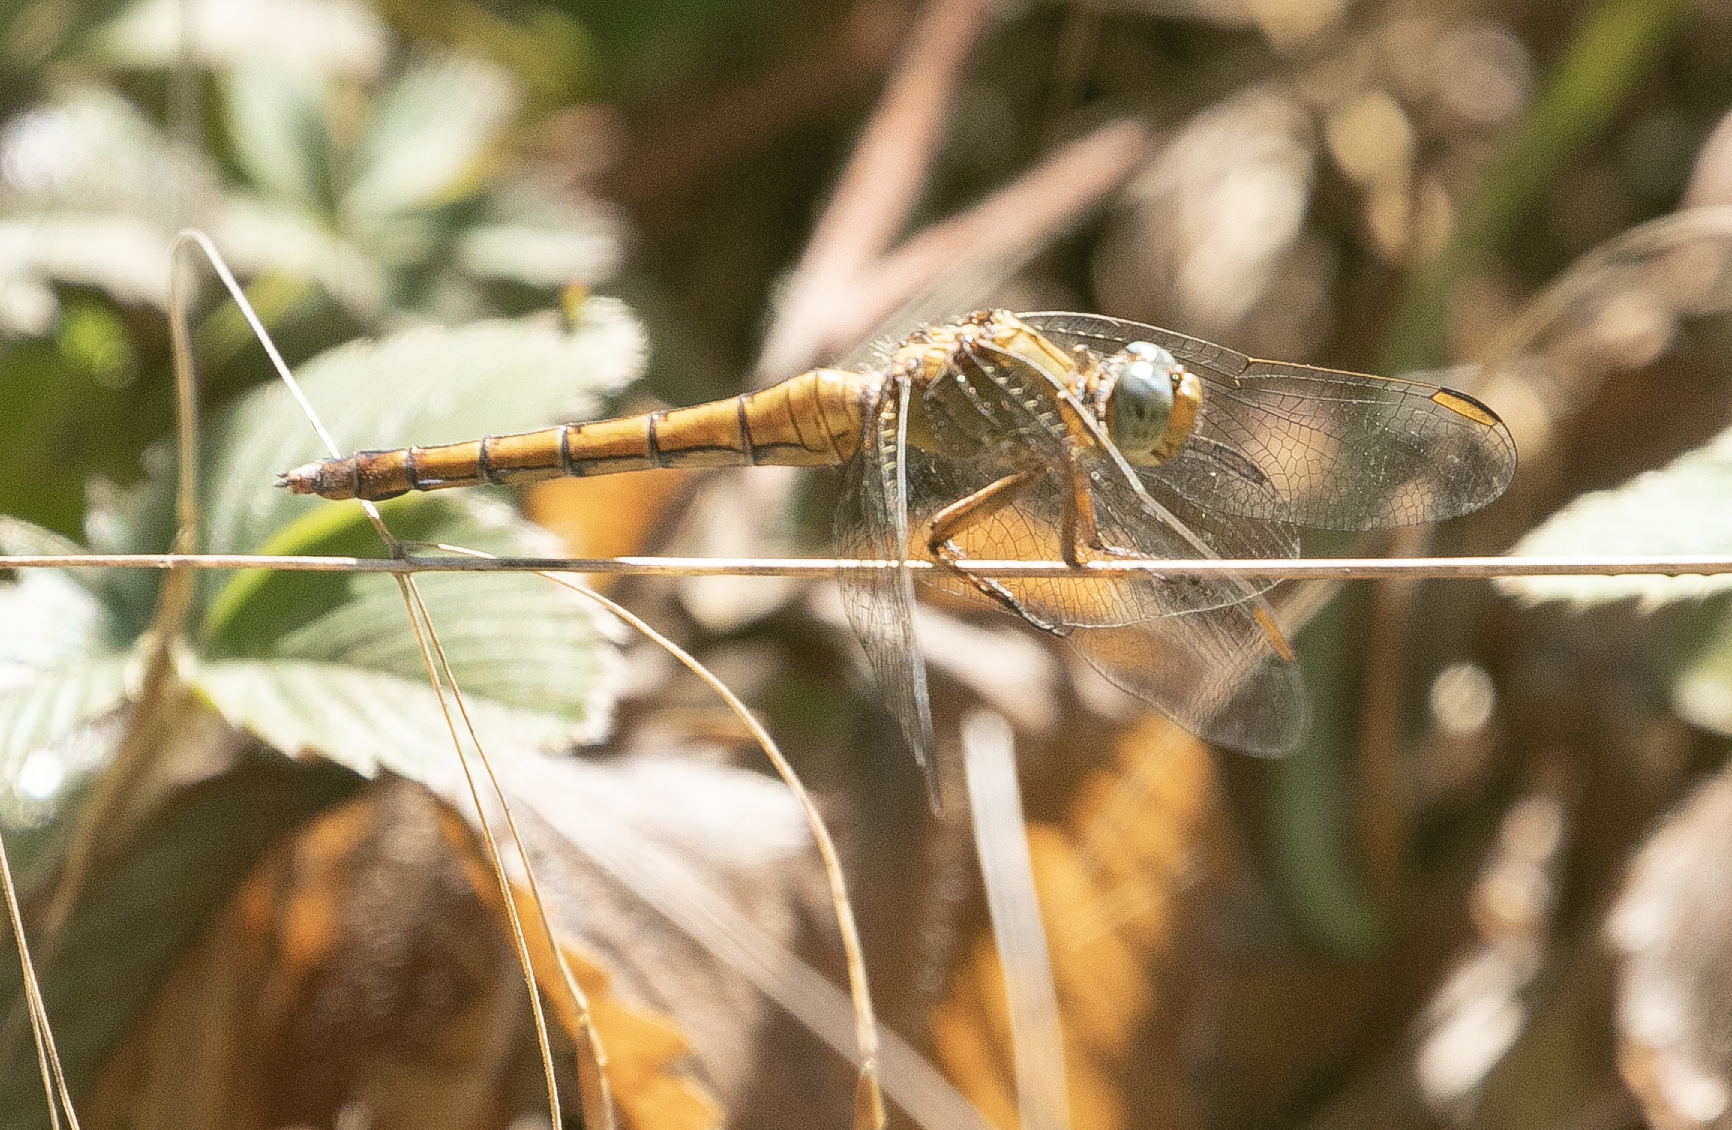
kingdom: Animalia
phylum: Arthropoda
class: Insecta
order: Odonata
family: Libellulidae
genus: Orthetrum
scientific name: Orthetrum coerulescens
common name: Keeled skimmer
